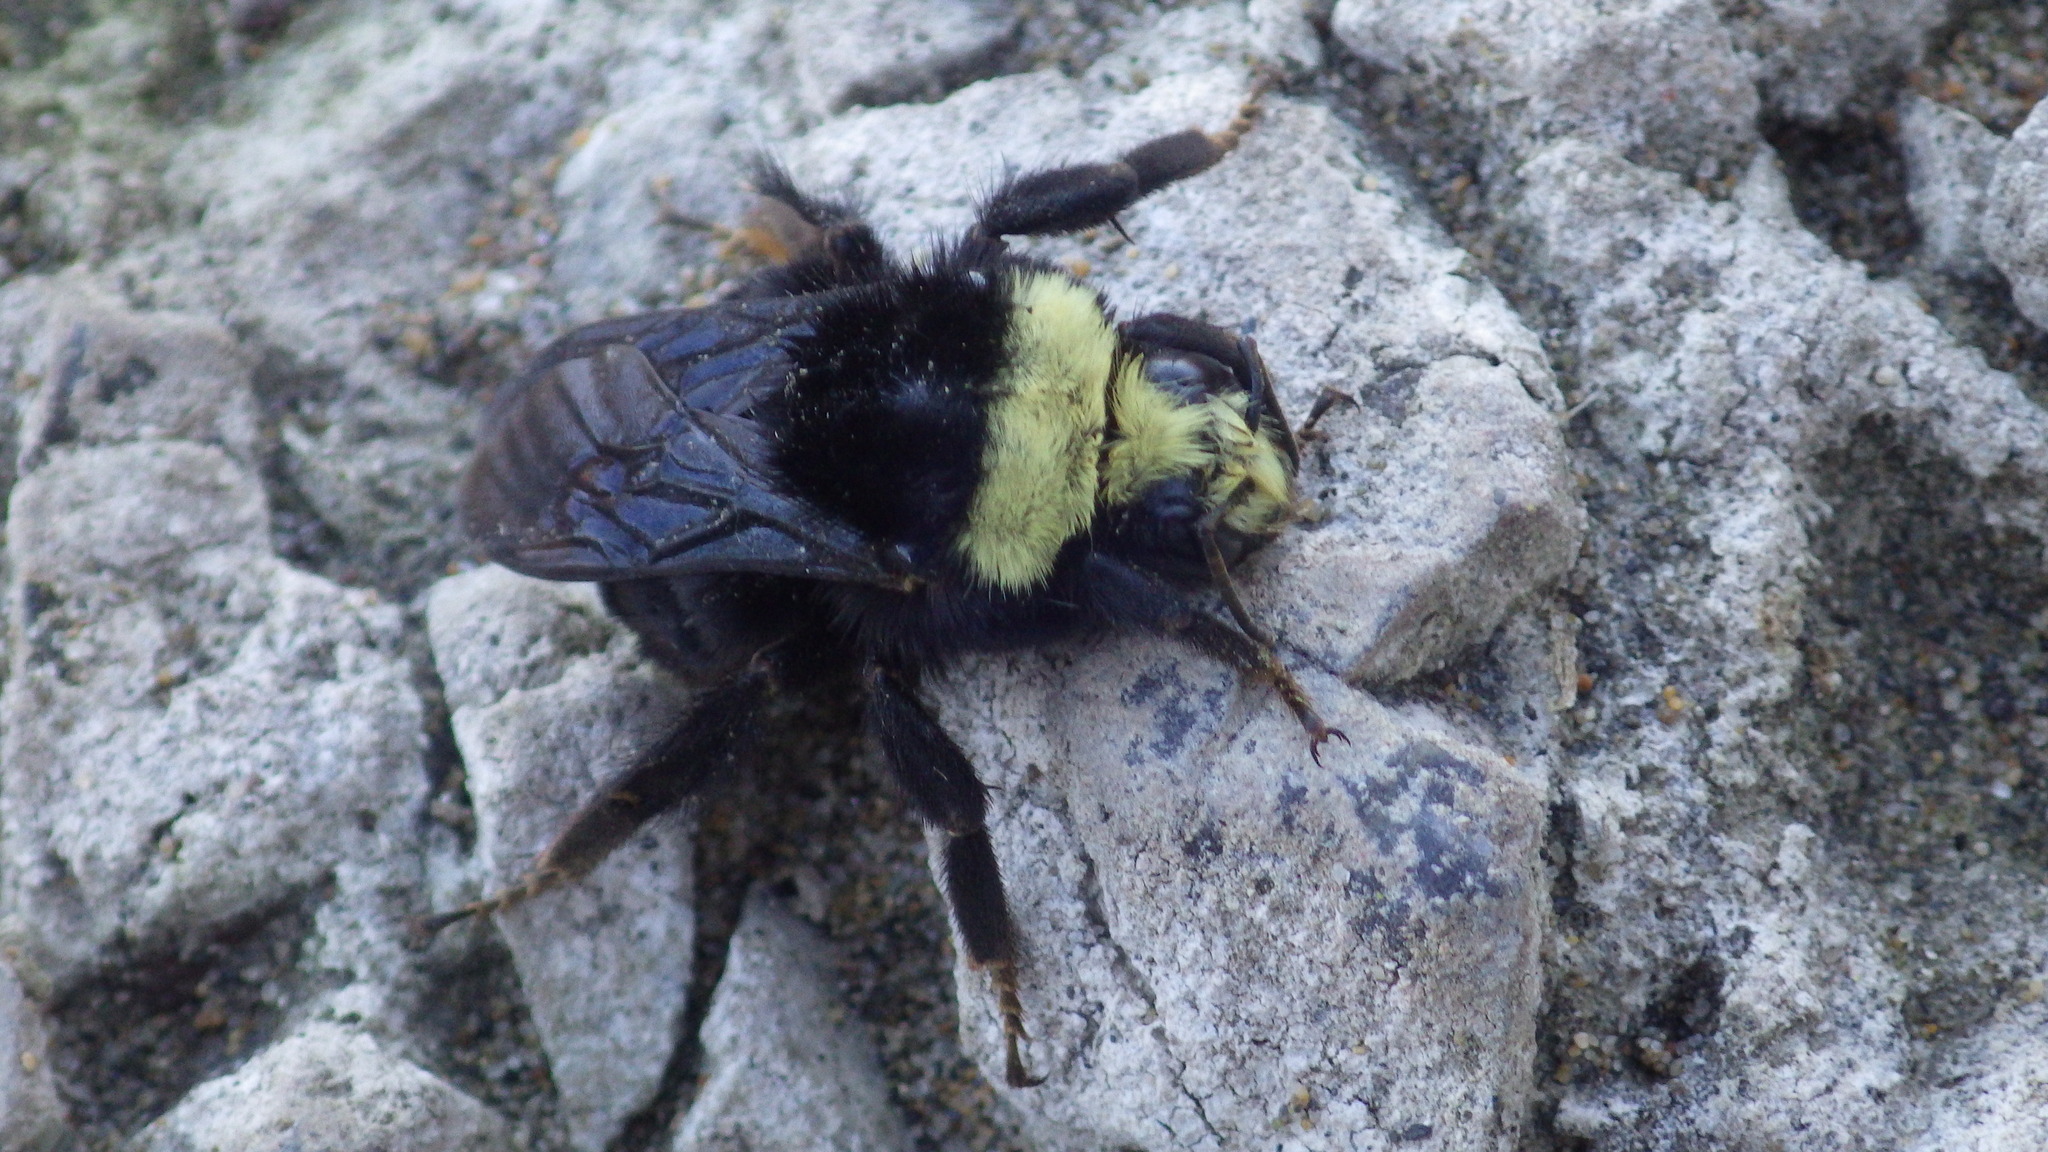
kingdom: Animalia
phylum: Arthropoda
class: Insecta
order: Hymenoptera
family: Apidae
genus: Bombus
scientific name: Bombus vosnesenskii
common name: Vosnesensky bumble bee
